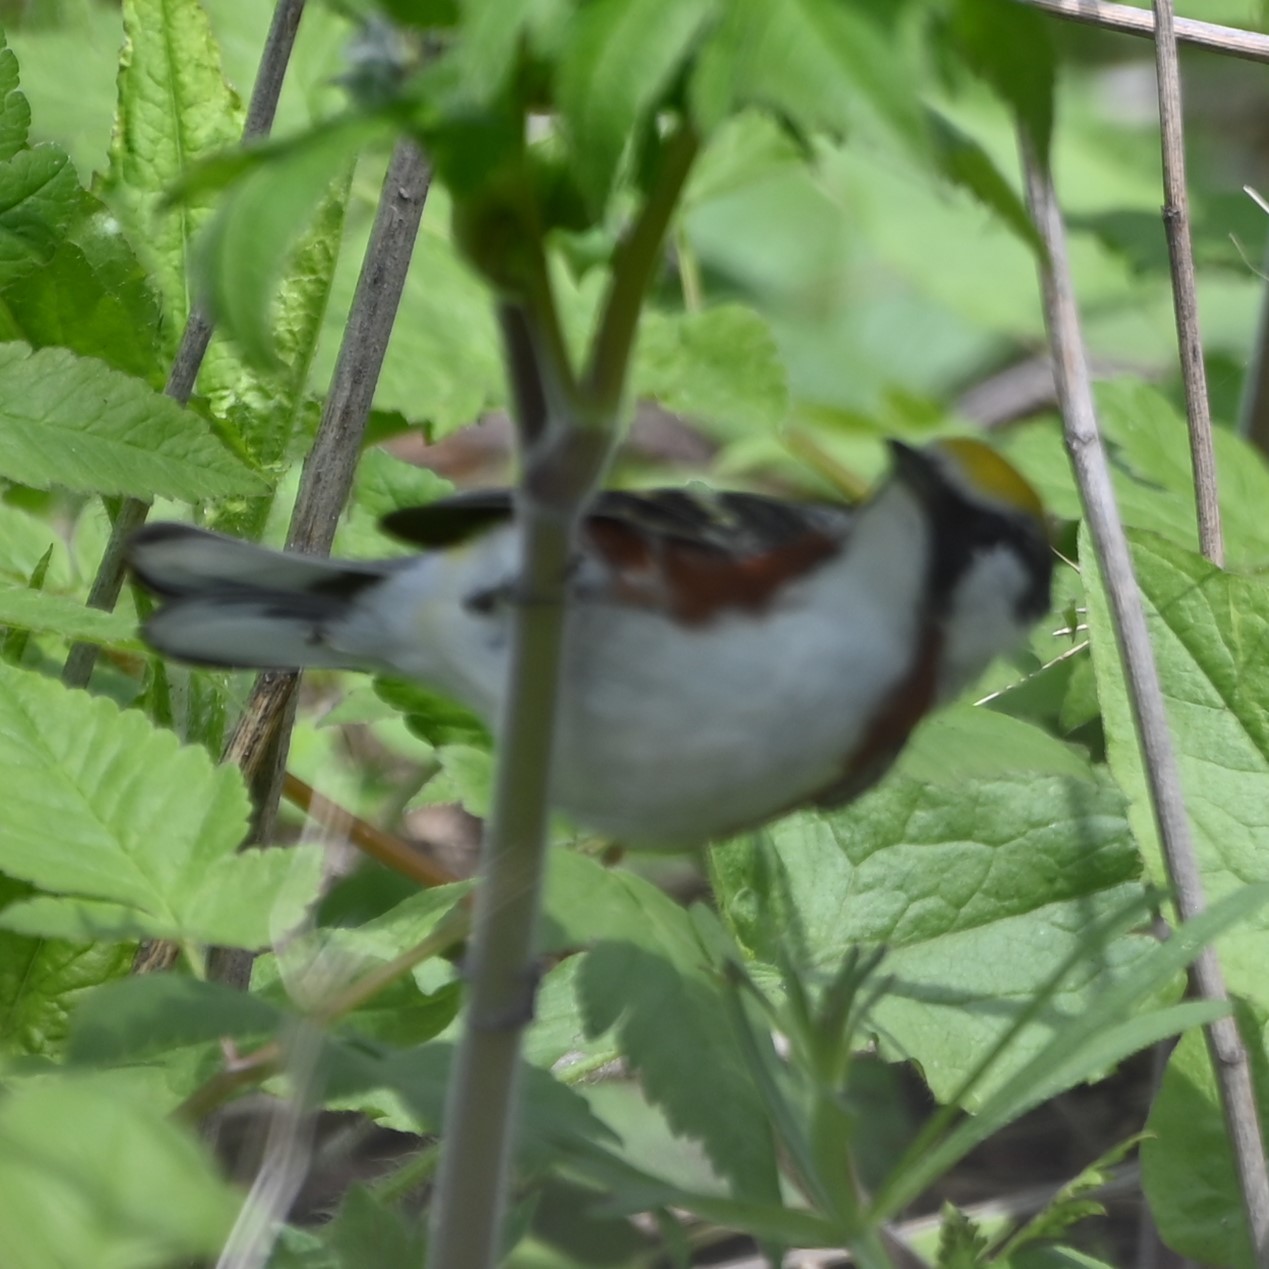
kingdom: Animalia
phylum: Chordata
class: Aves
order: Passeriformes
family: Parulidae
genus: Setophaga
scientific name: Setophaga pensylvanica
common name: Chestnut-sided warbler
